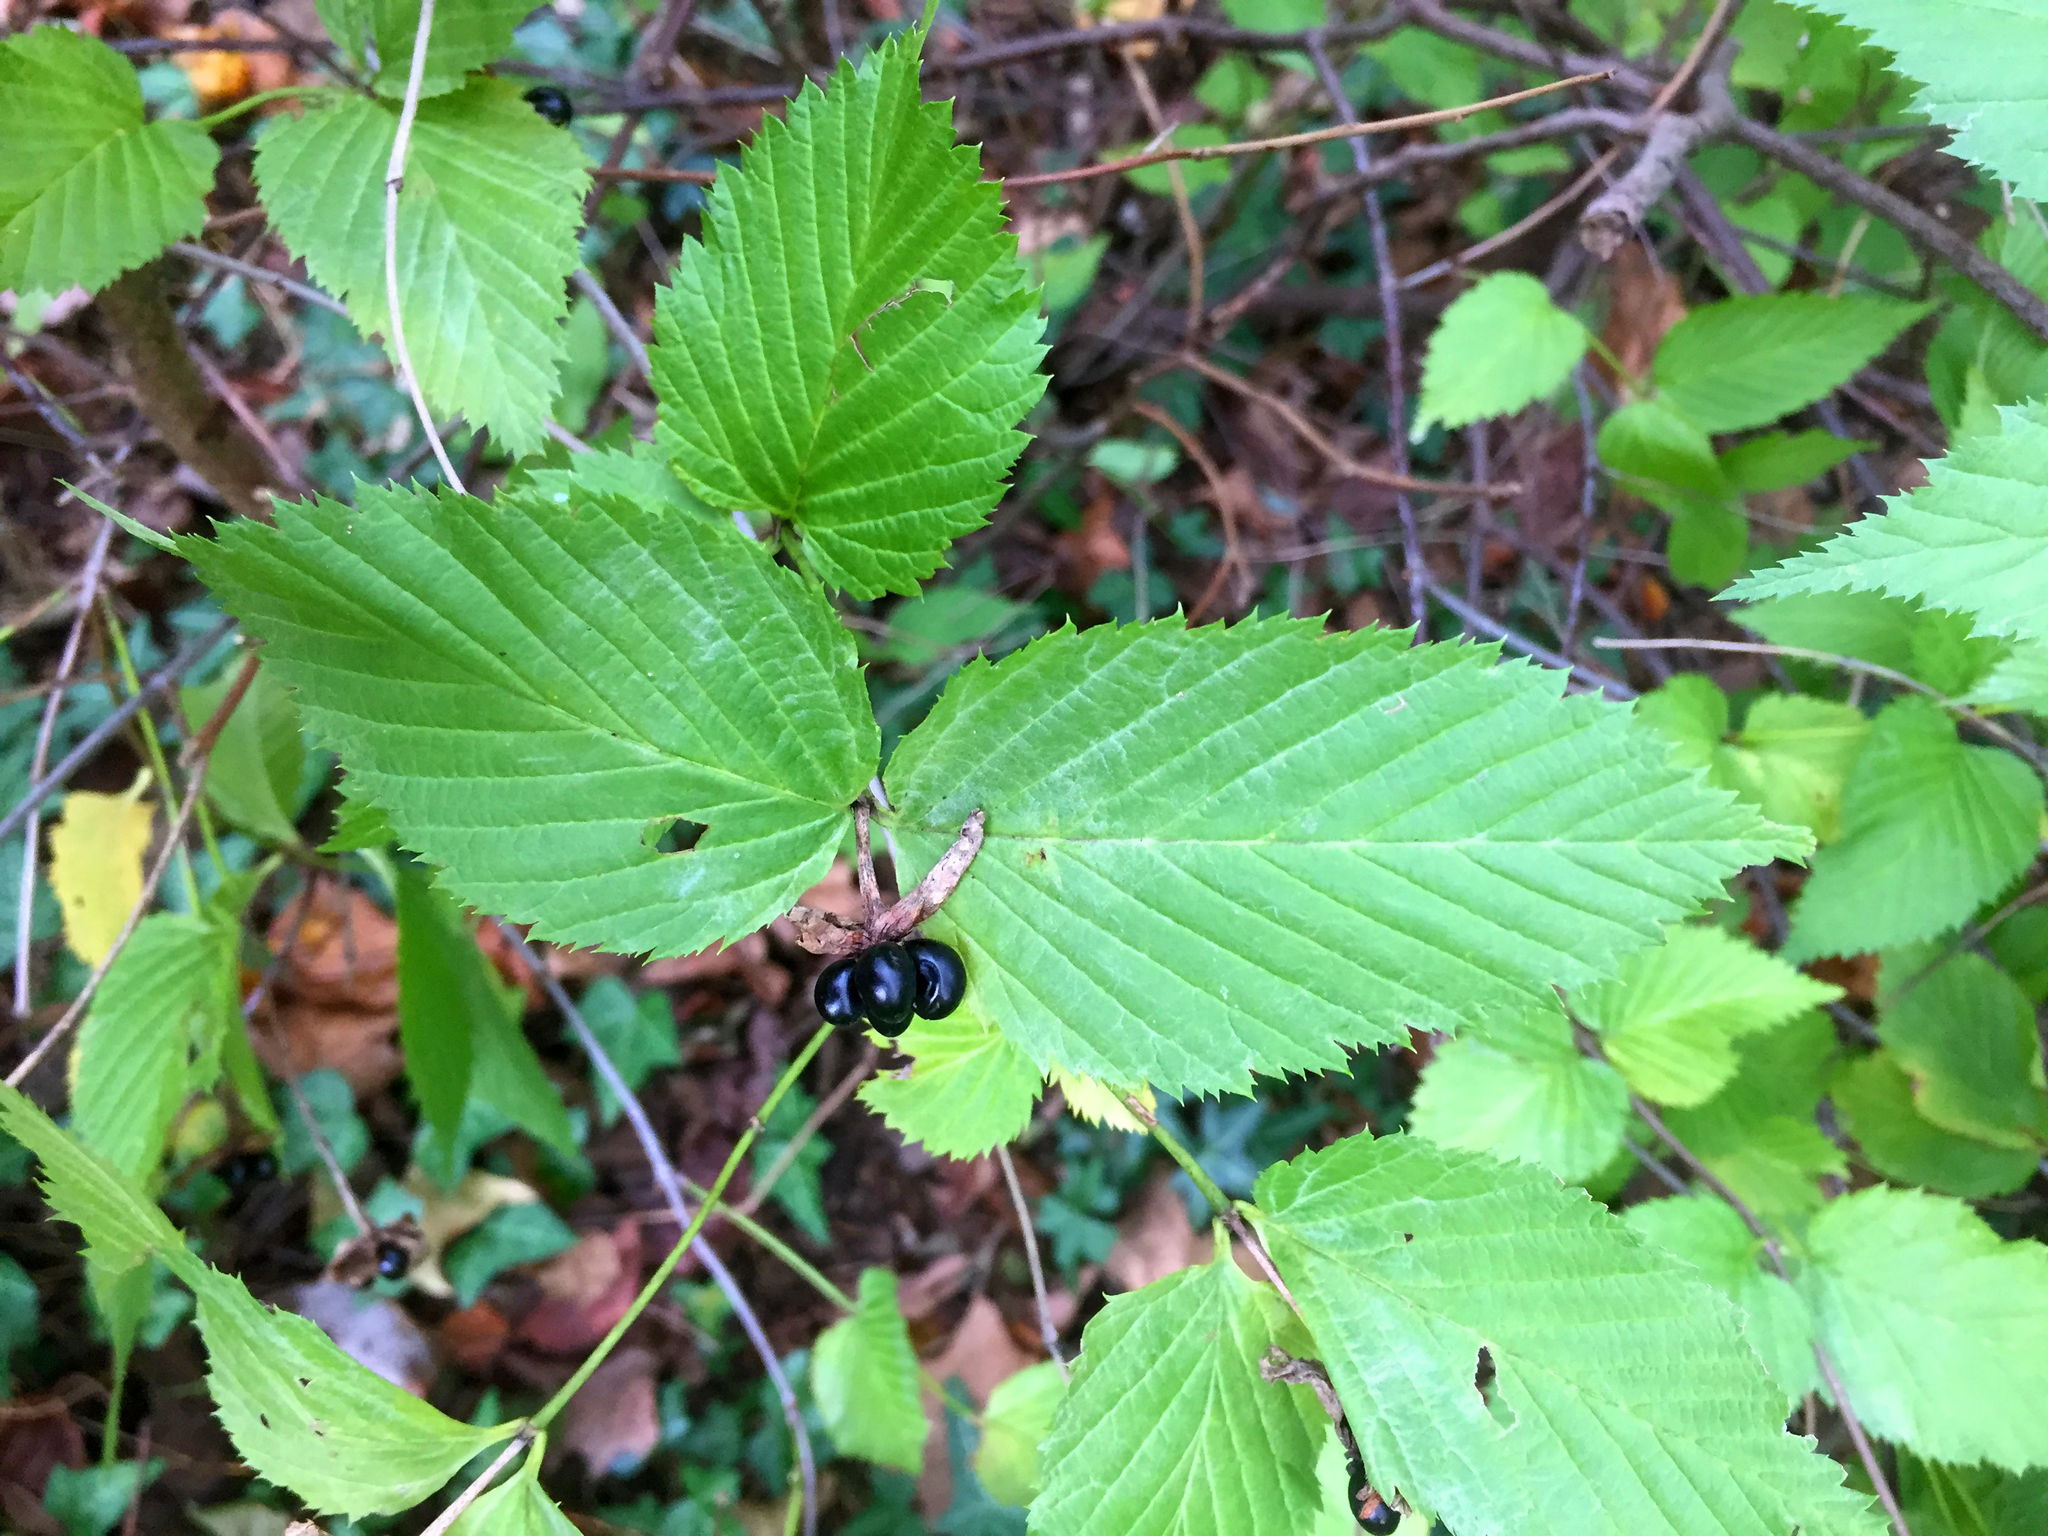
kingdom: Plantae
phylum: Tracheophyta
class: Magnoliopsida
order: Rosales
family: Rosaceae
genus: Rhodotypos
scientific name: Rhodotypos scandens
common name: Jetbead
